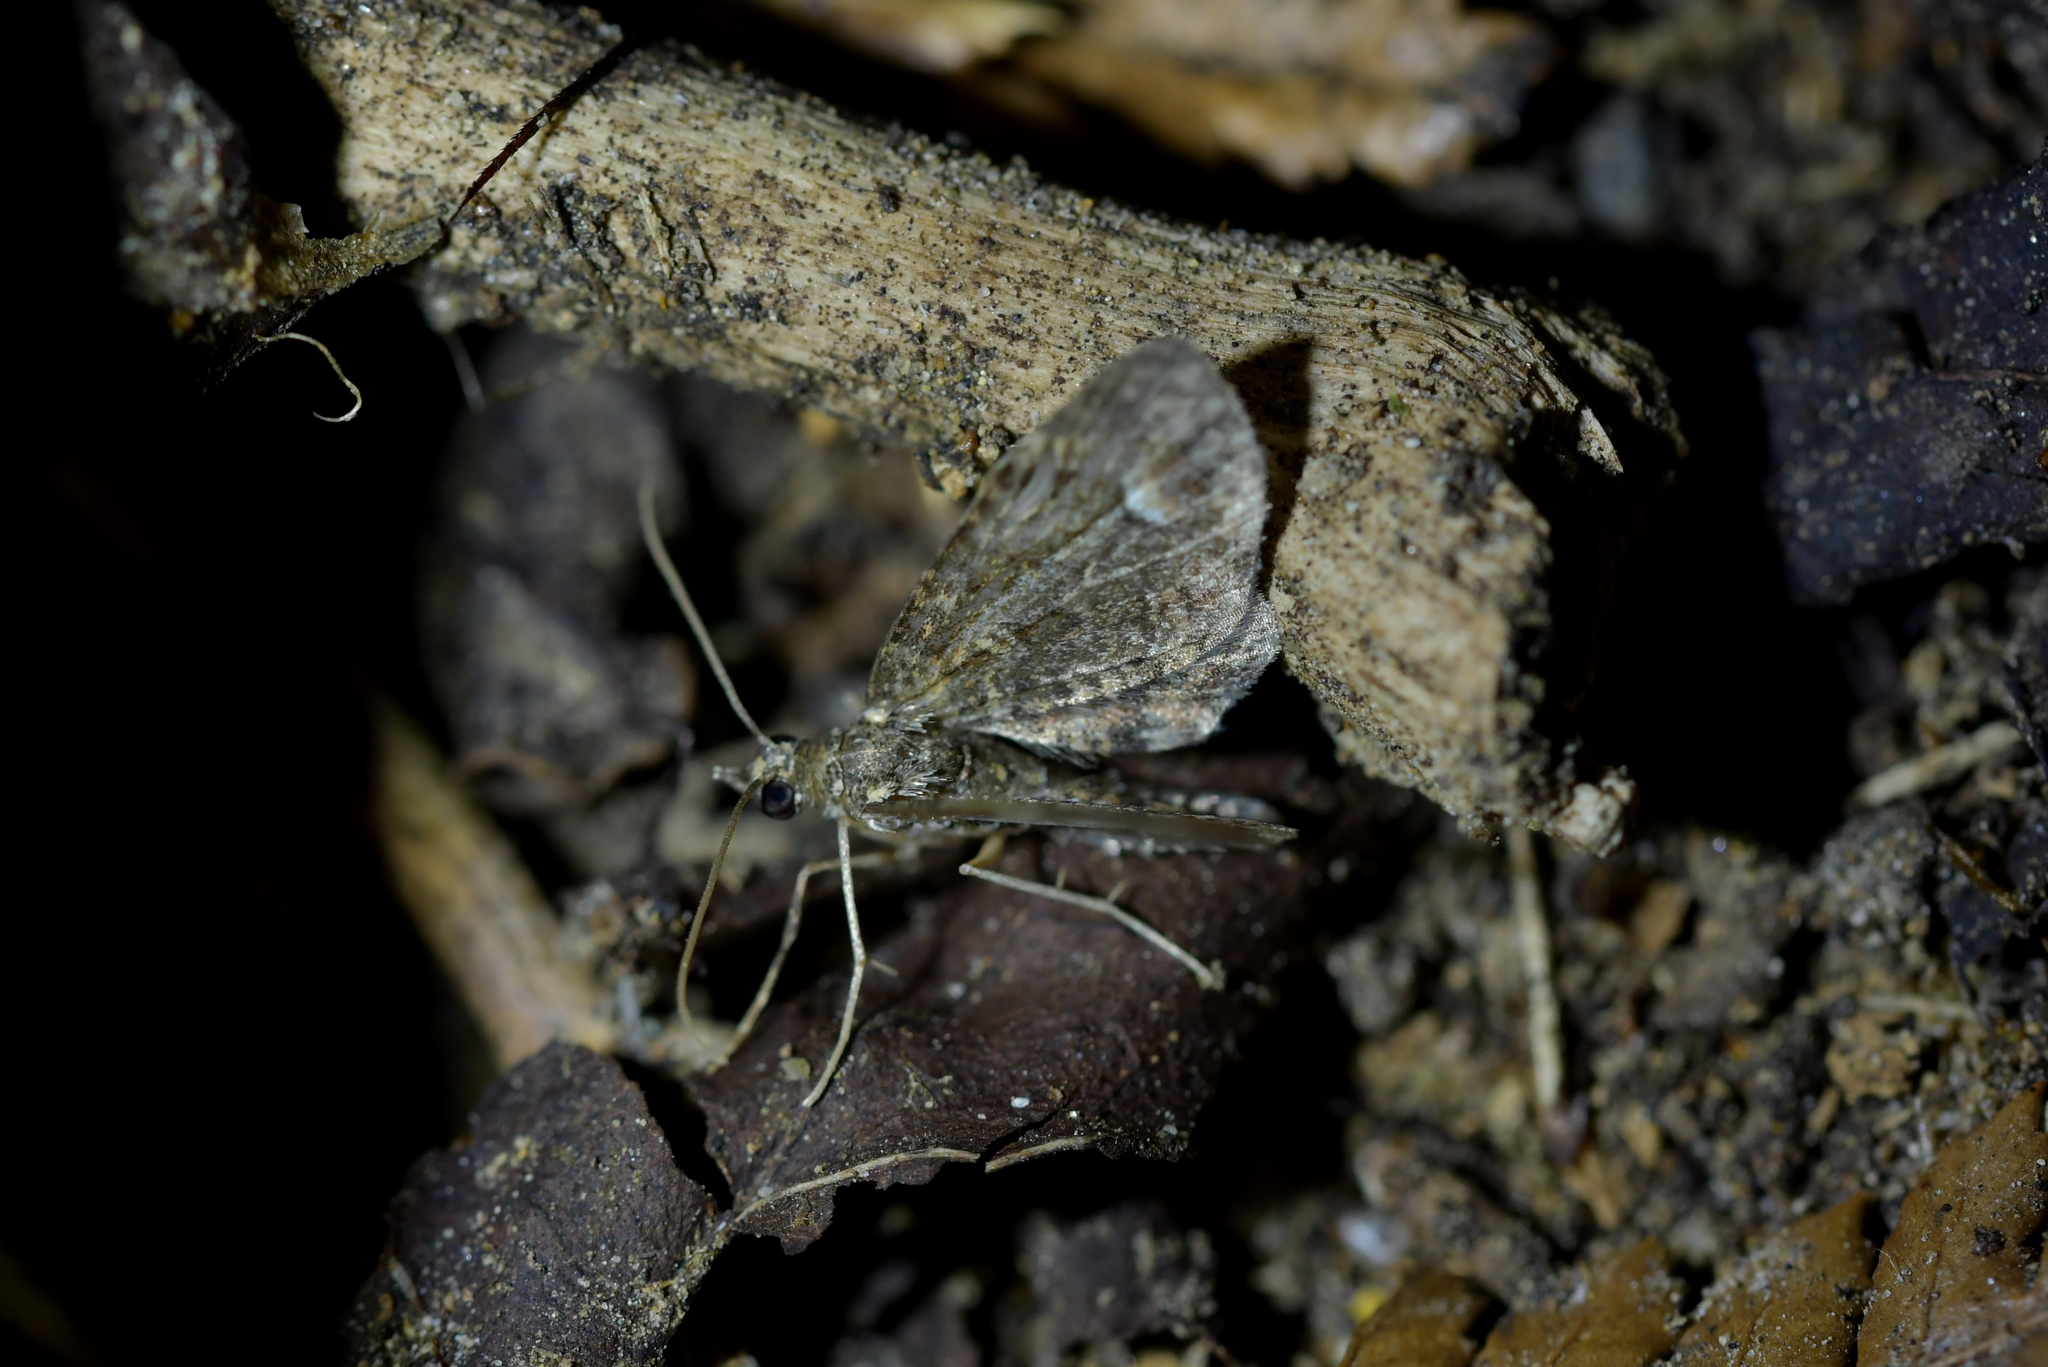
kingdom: Animalia
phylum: Arthropoda
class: Insecta
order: Lepidoptera
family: Geometridae
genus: Idaea
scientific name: Idaea mutanda
